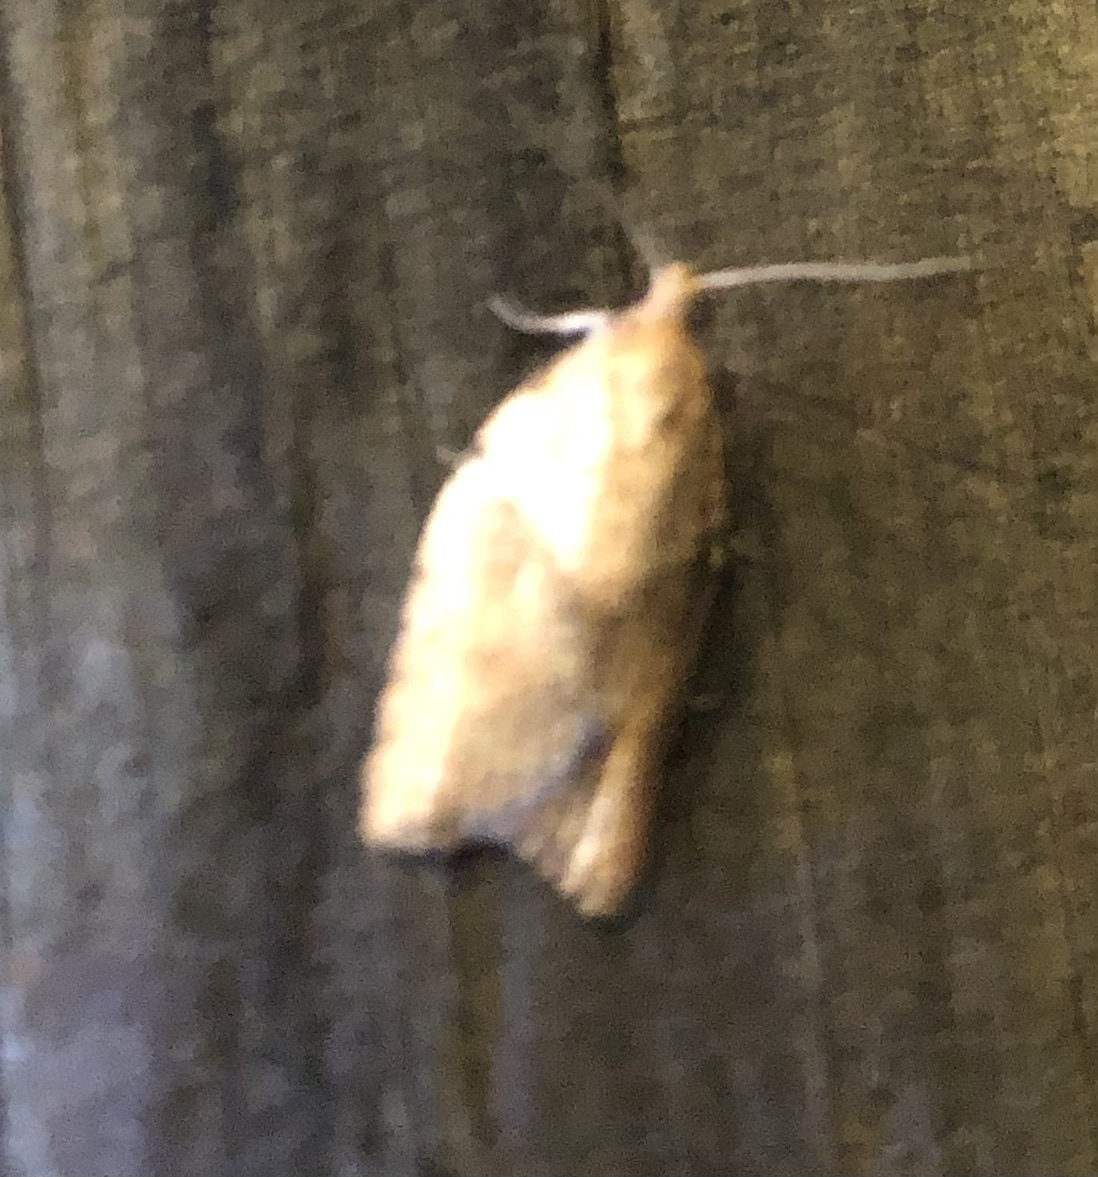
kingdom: Animalia
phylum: Arthropoda
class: Insecta
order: Lepidoptera
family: Tortricidae
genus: Epiphyas
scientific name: Epiphyas postvittana
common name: Light brown apple moth
